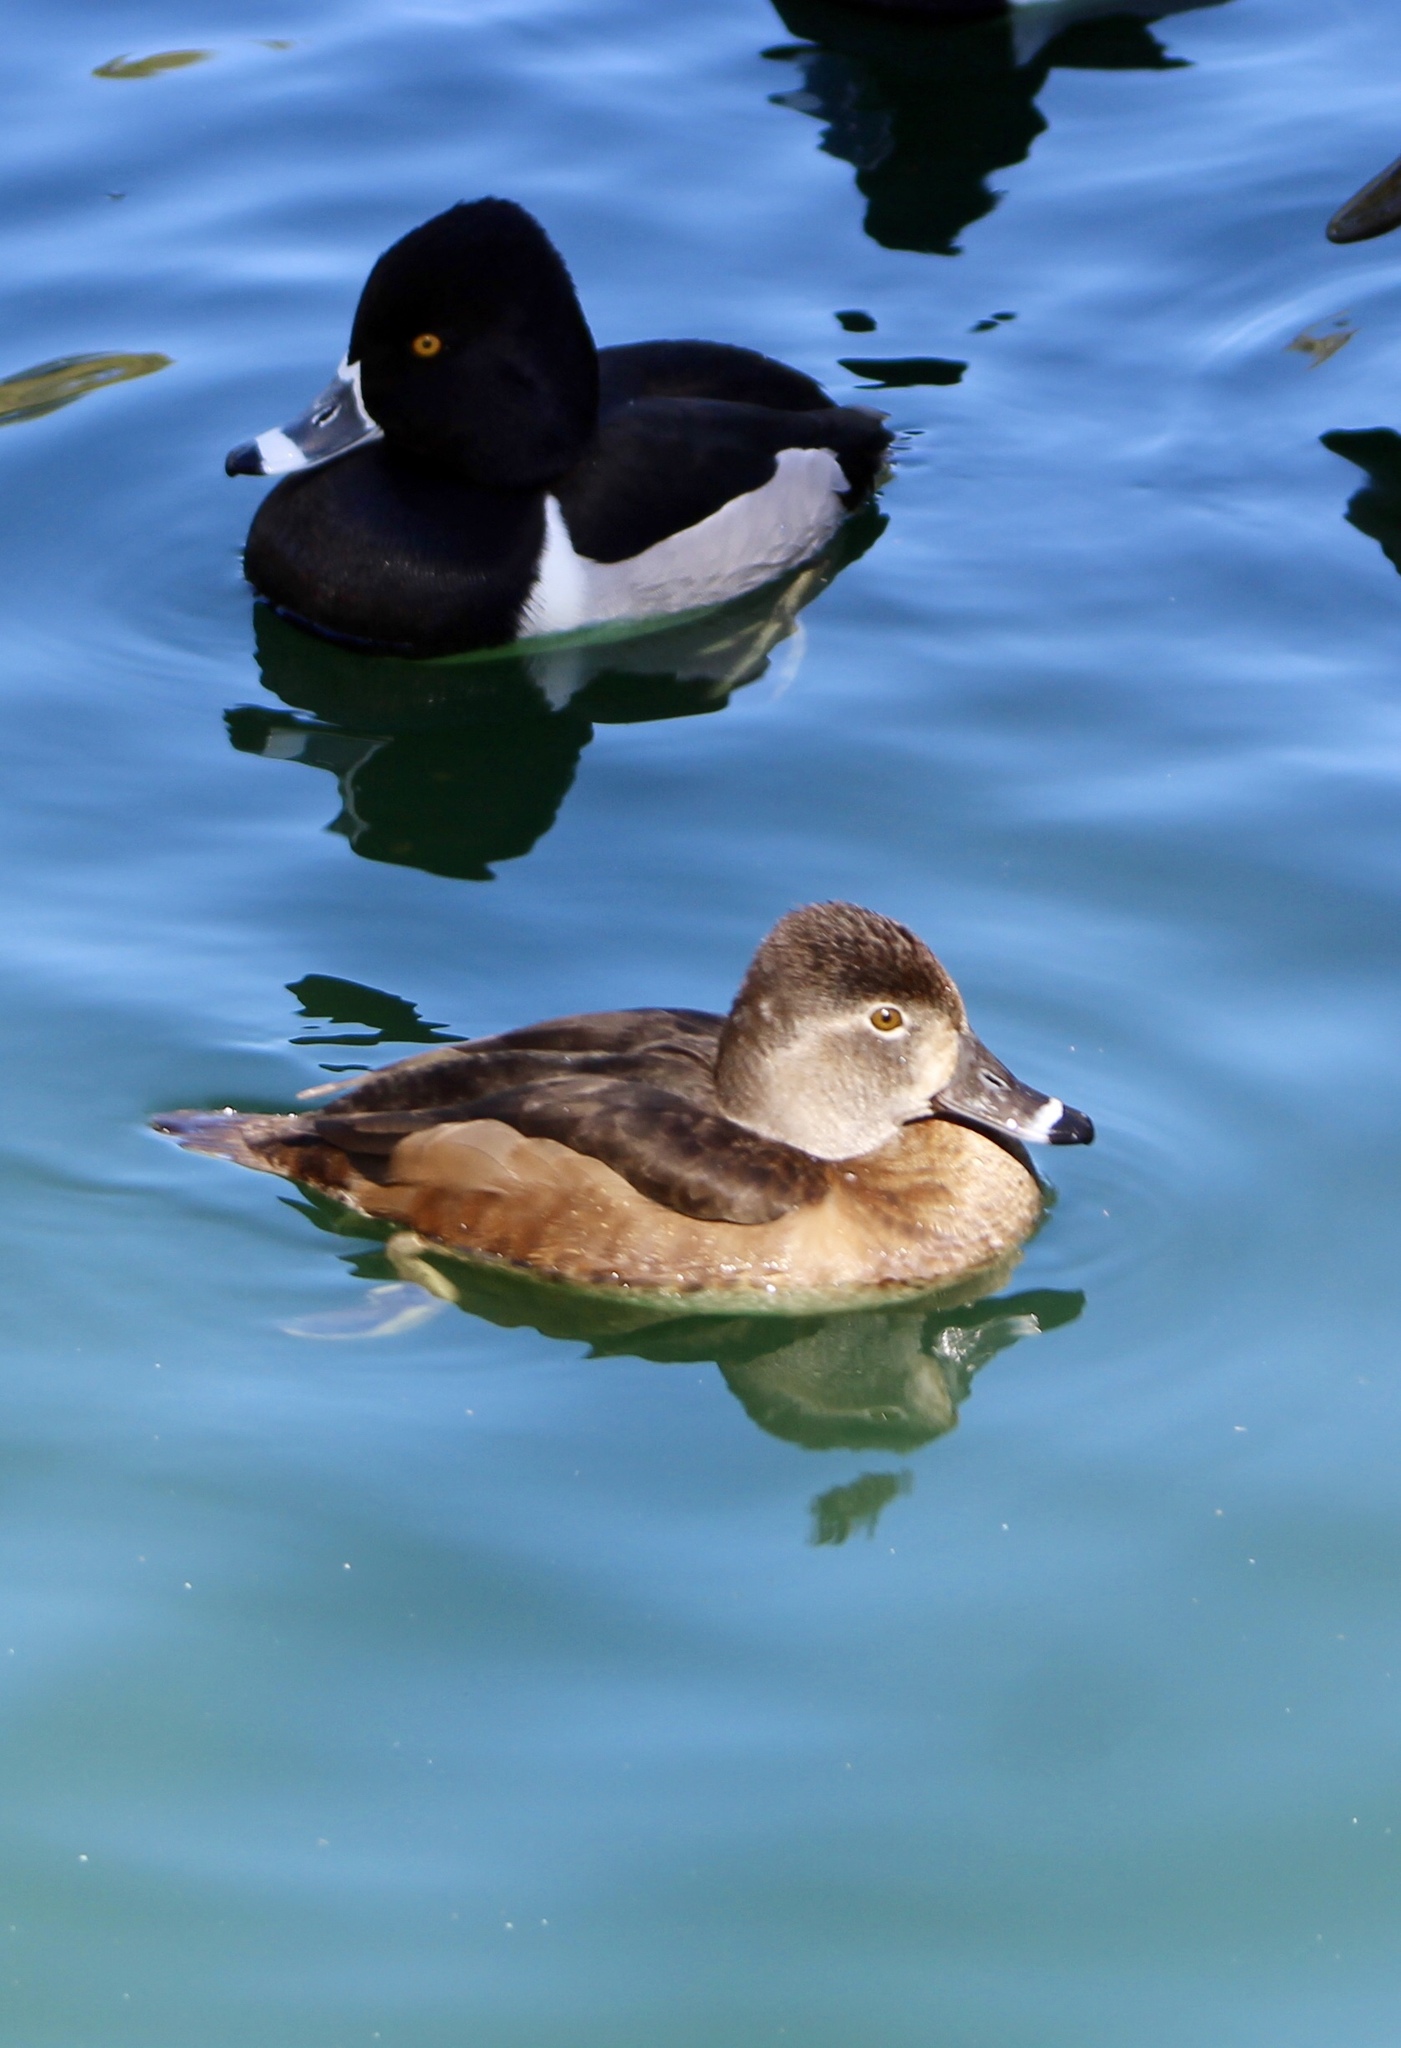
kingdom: Animalia
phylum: Chordata
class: Aves
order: Anseriformes
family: Anatidae
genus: Aythya
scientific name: Aythya collaris
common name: Ring-necked duck
